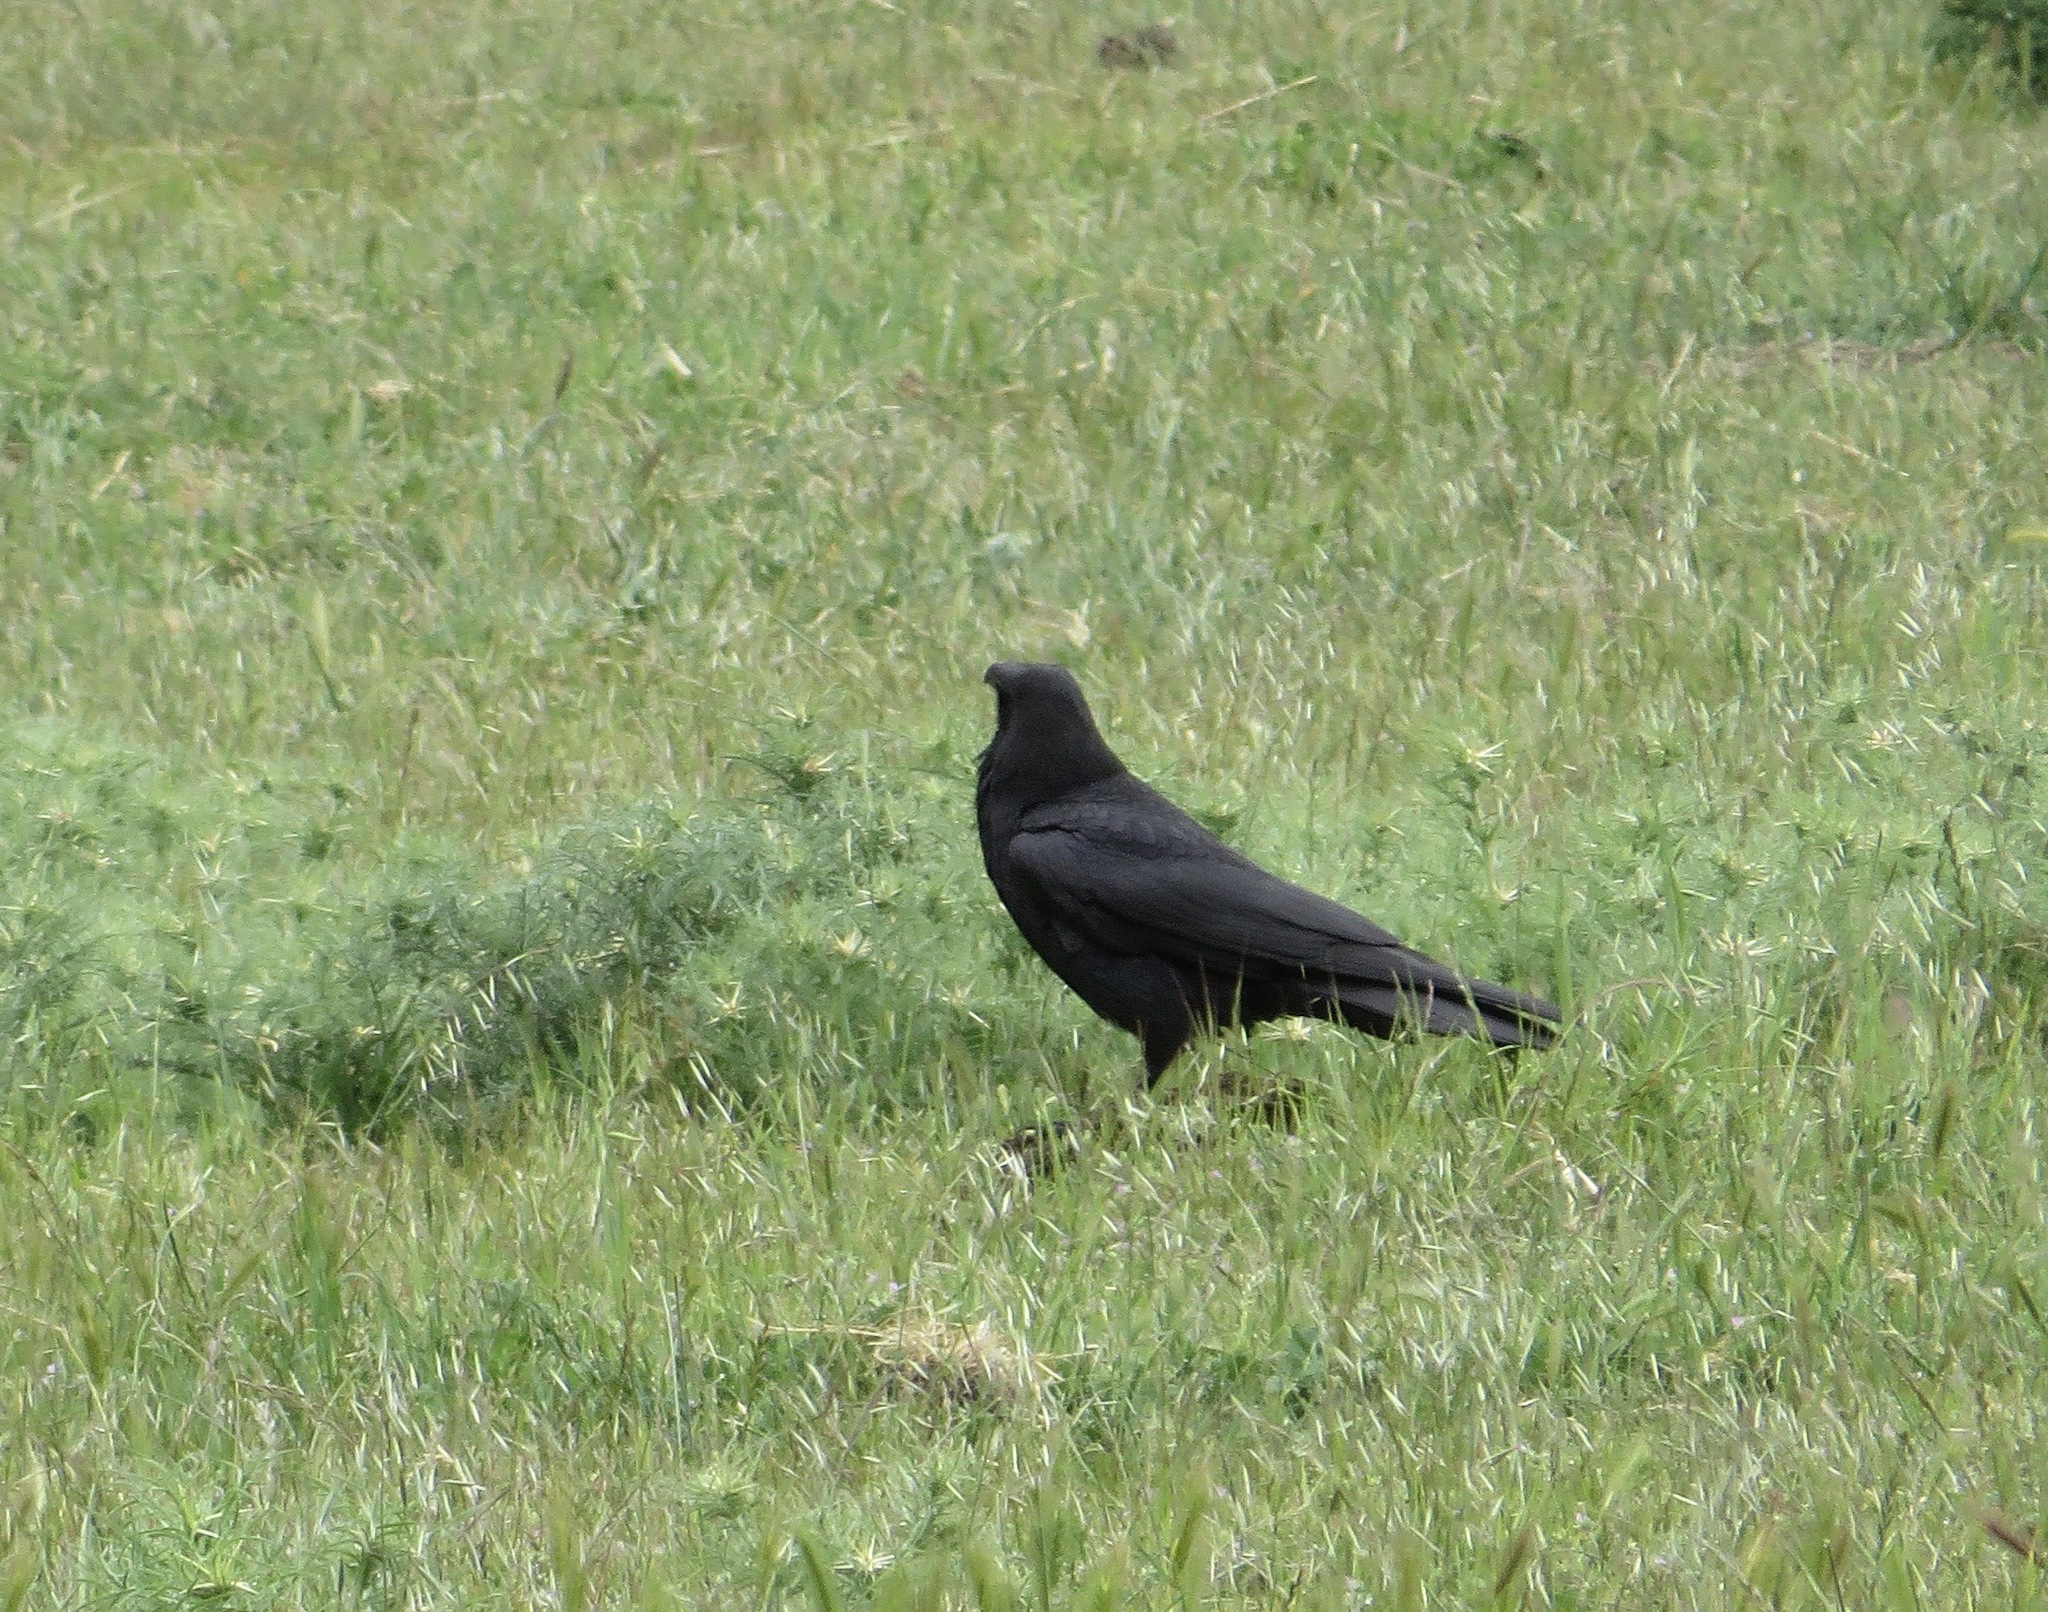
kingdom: Animalia
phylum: Chordata
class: Aves
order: Passeriformes
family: Corvidae
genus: Corvus
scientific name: Corvus corax
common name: Common raven
